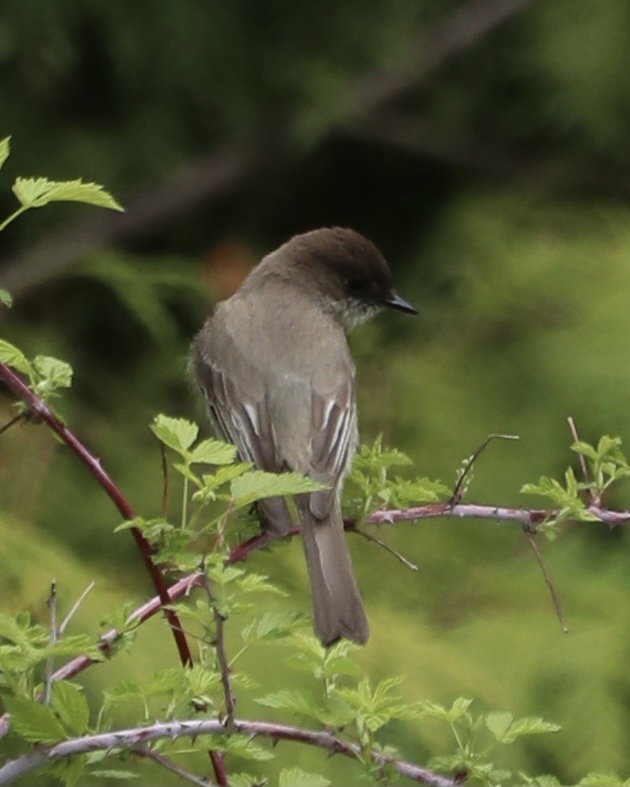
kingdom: Animalia
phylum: Chordata
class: Aves
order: Passeriformes
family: Tyrannidae
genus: Sayornis
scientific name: Sayornis phoebe
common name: Eastern phoebe
